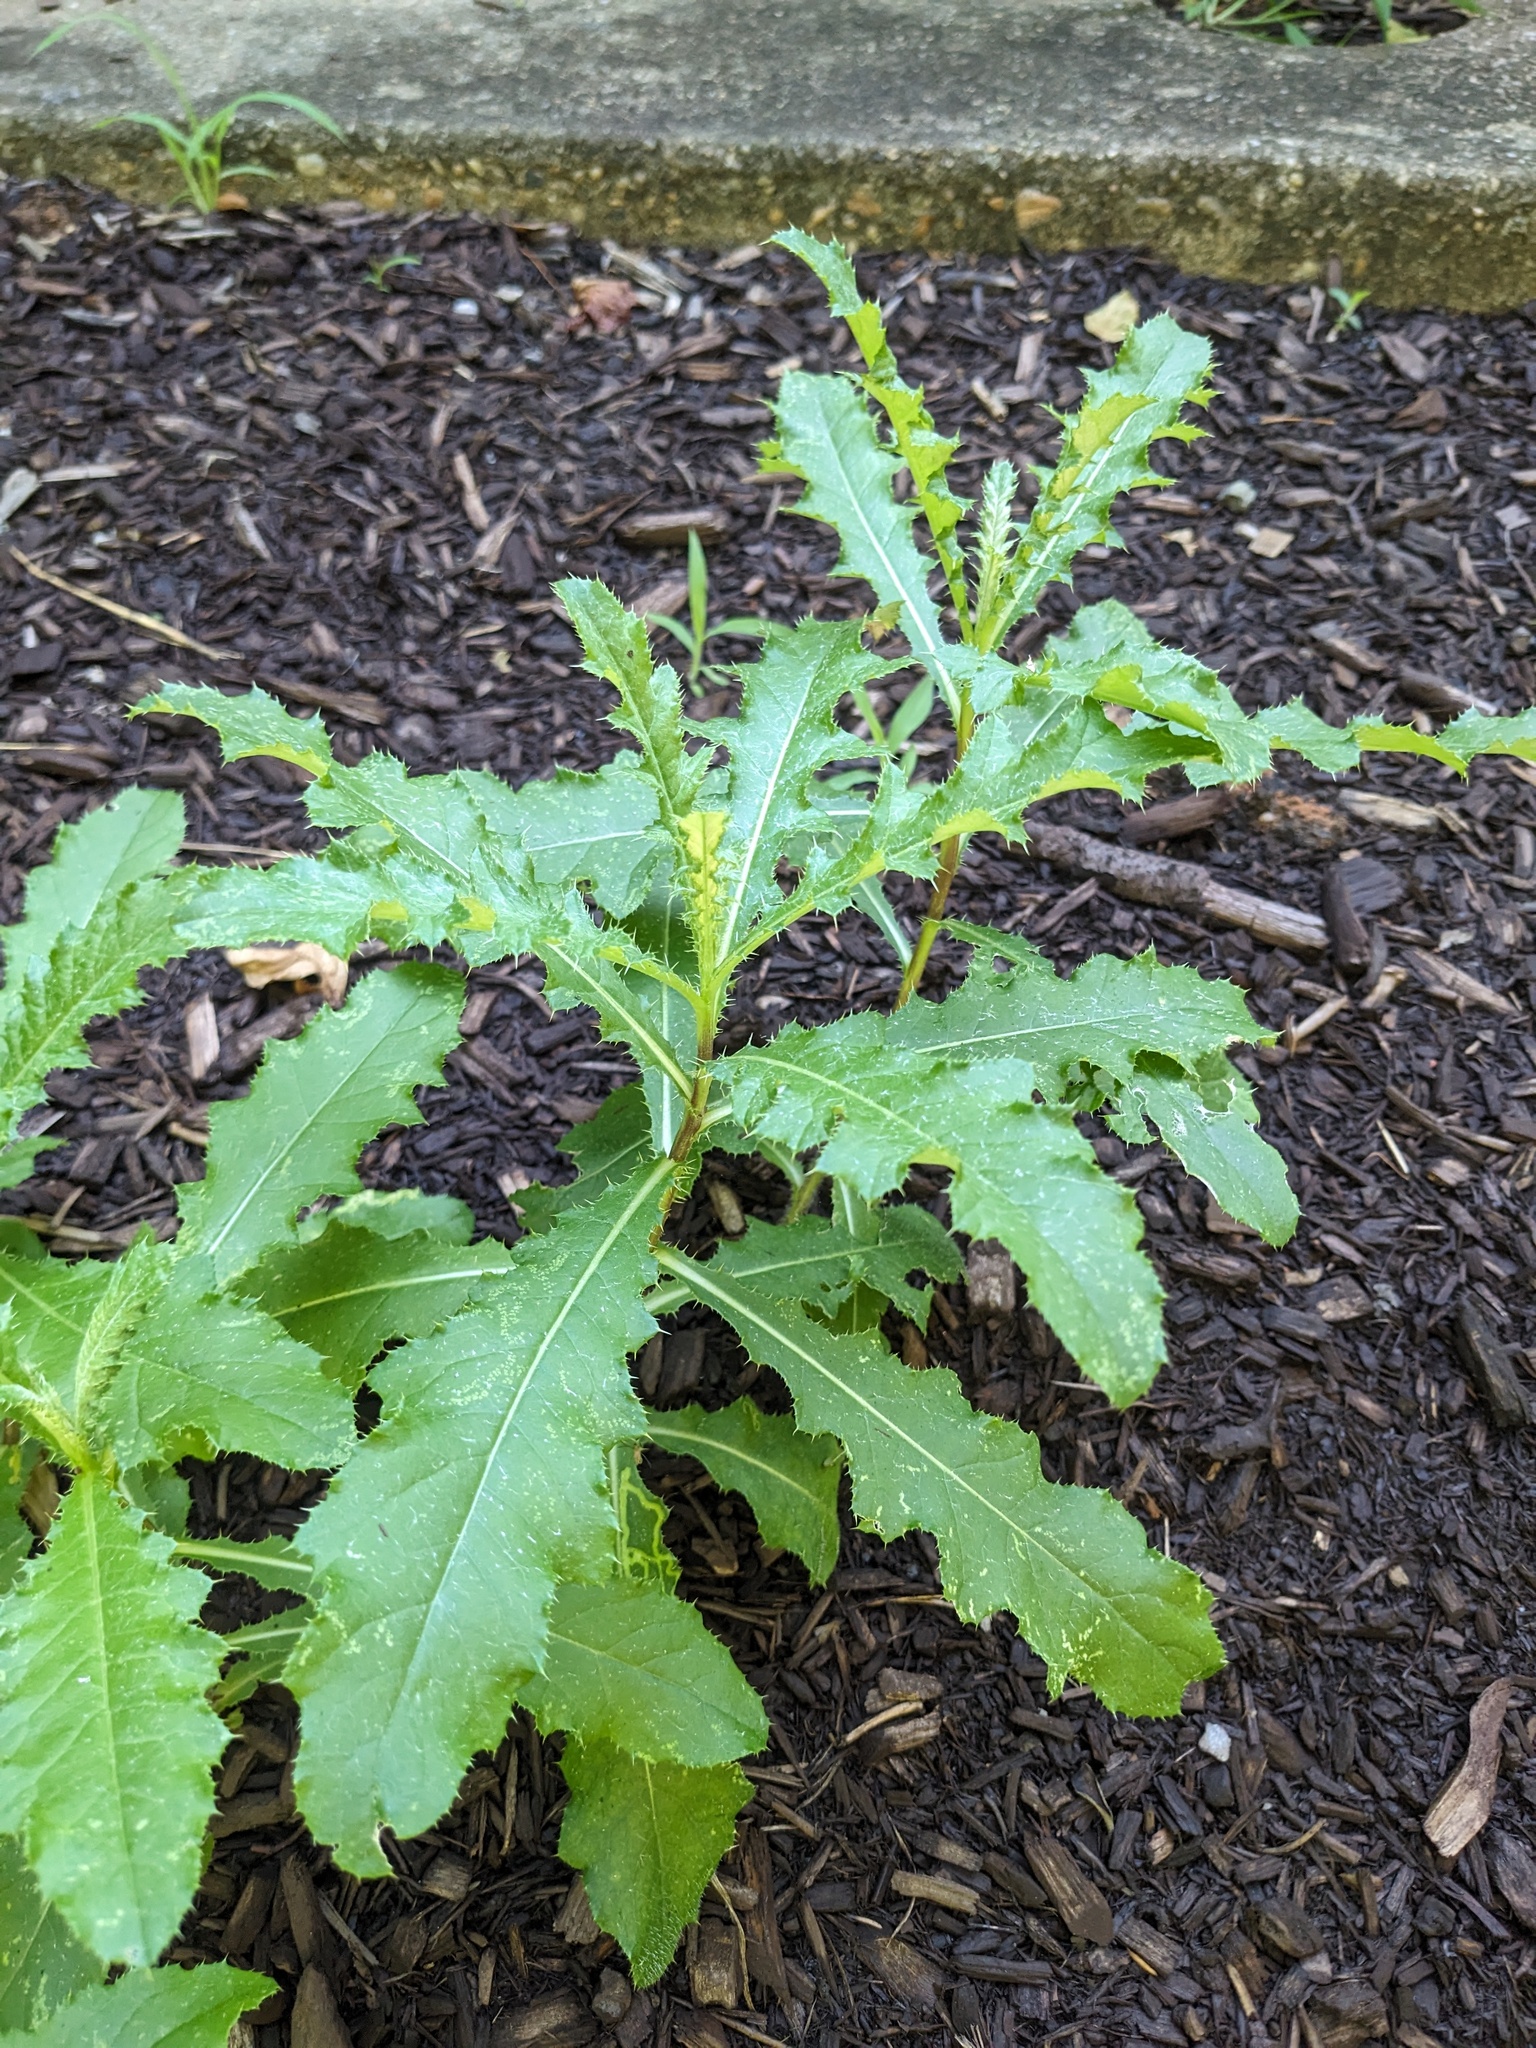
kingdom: Plantae
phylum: Tracheophyta
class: Magnoliopsida
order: Asterales
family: Asteraceae
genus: Cirsium
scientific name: Cirsium arvense
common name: Creeping thistle
